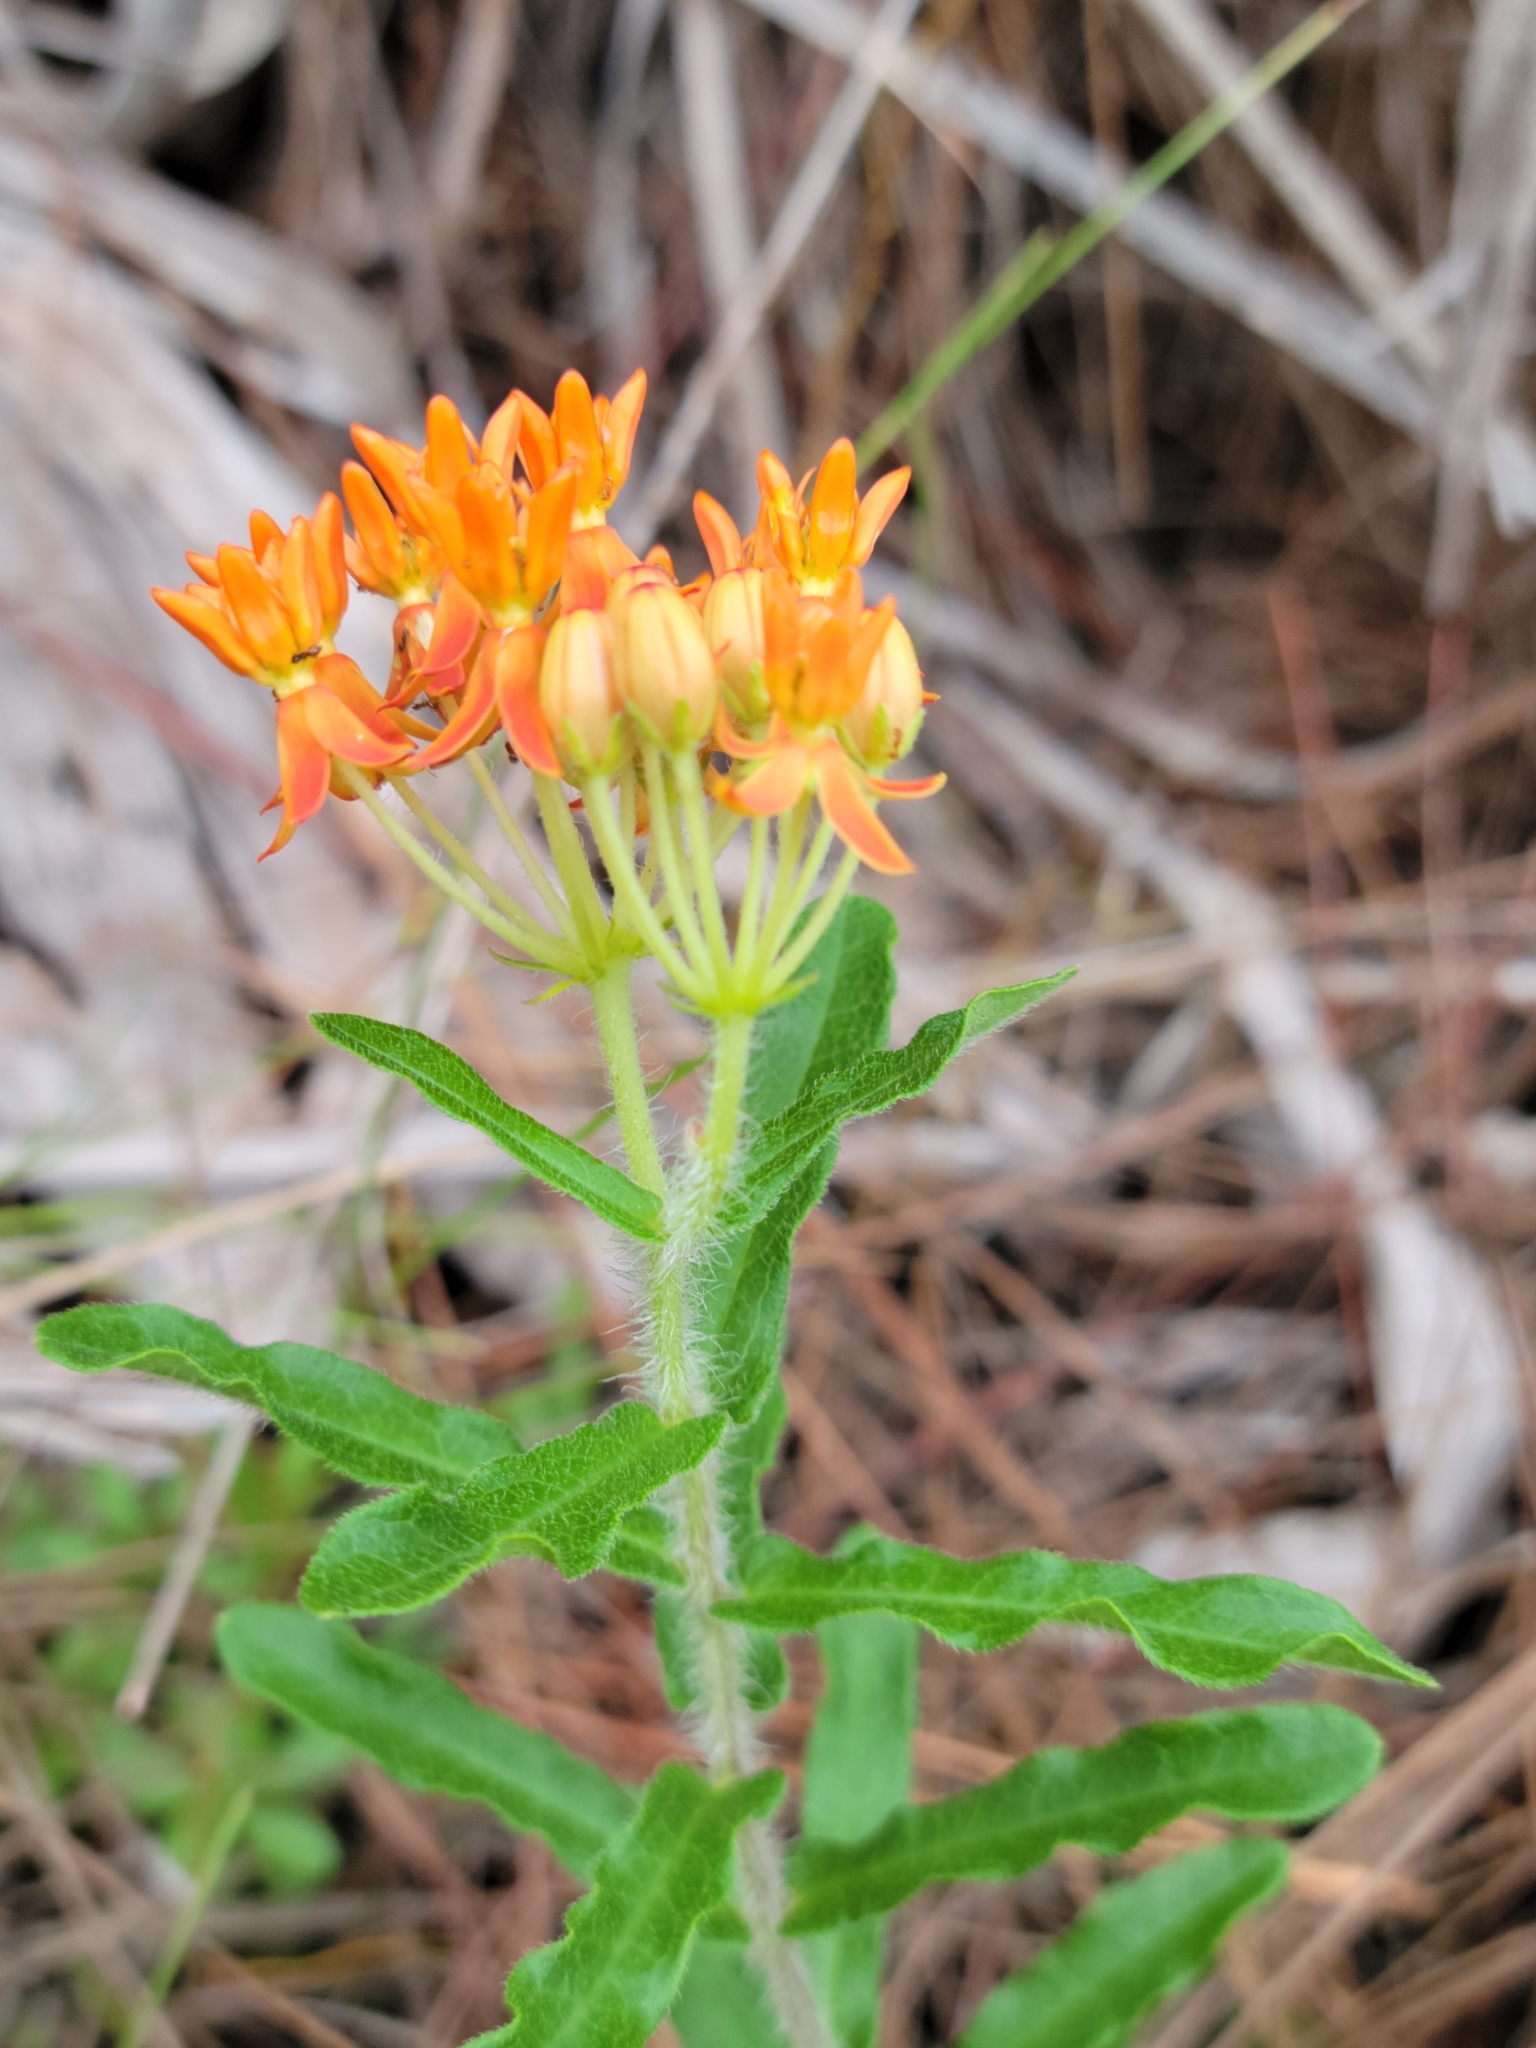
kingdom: Plantae
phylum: Tracheophyta
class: Magnoliopsida
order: Gentianales
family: Apocynaceae
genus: Asclepias
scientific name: Asclepias tuberosa
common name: Butterfly milkweed
